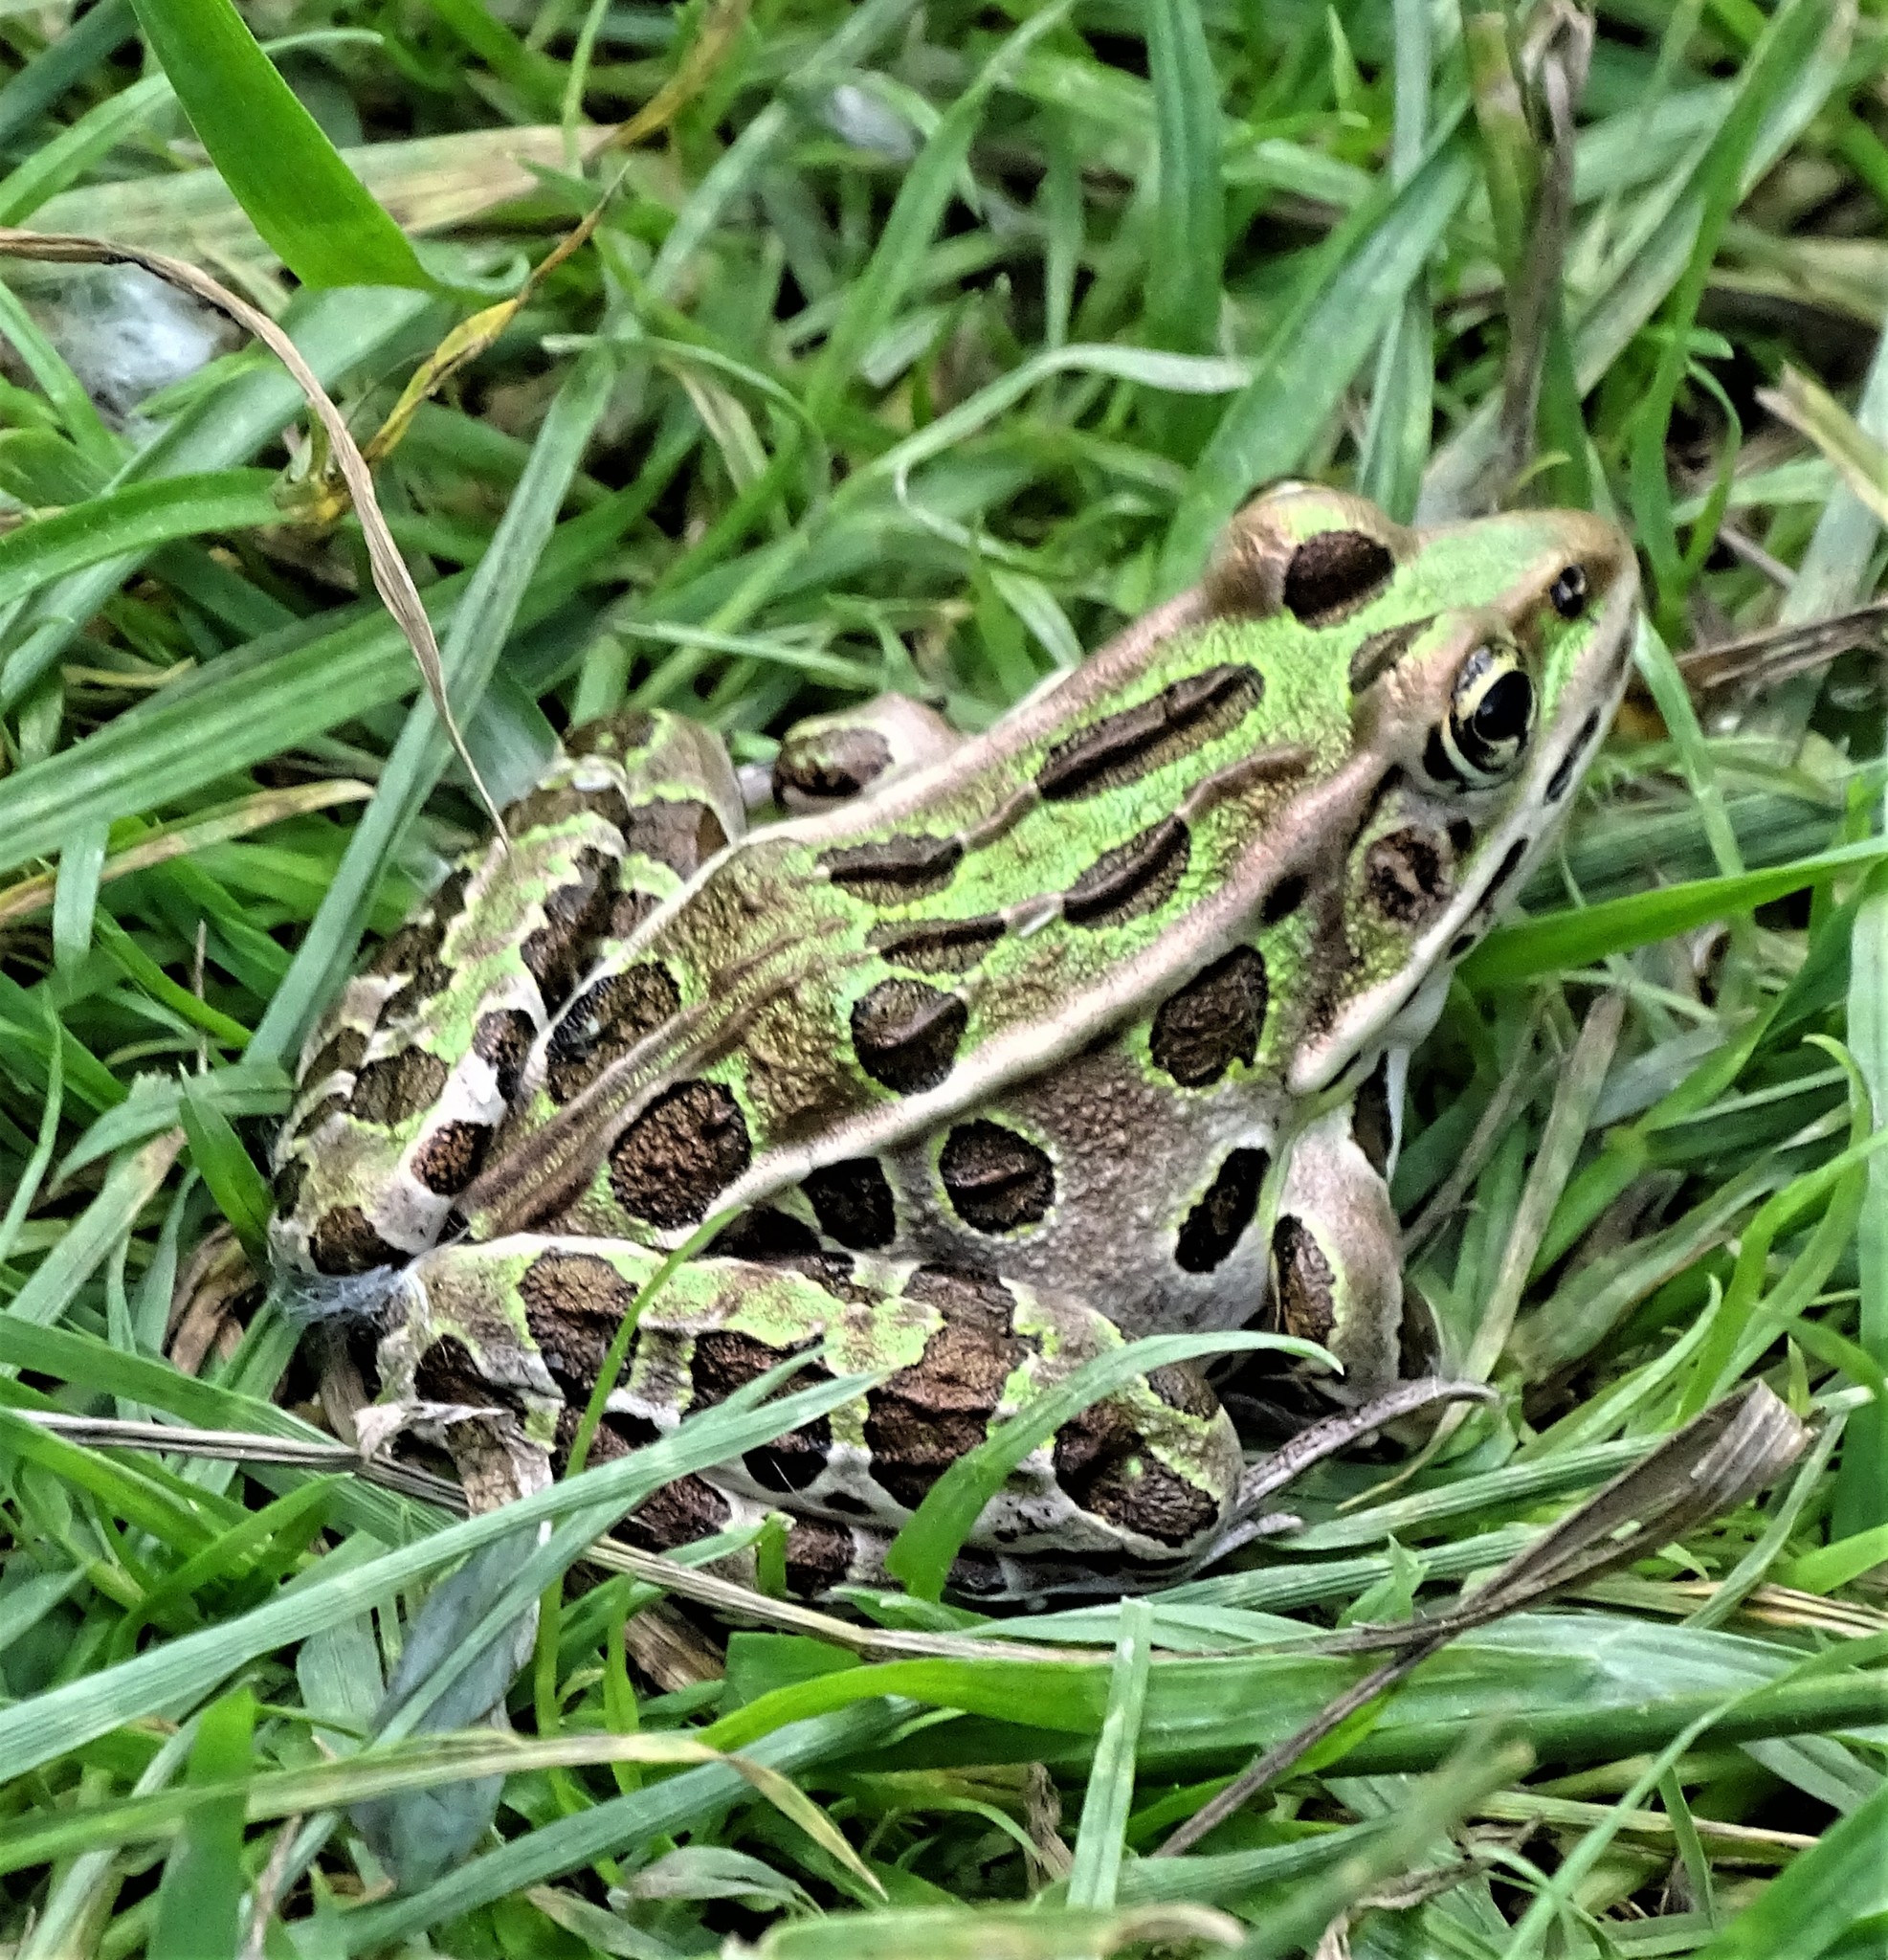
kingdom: Animalia
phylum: Chordata
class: Amphibia
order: Anura
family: Ranidae
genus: Lithobates
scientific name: Lithobates pipiens
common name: Northern leopard frog
